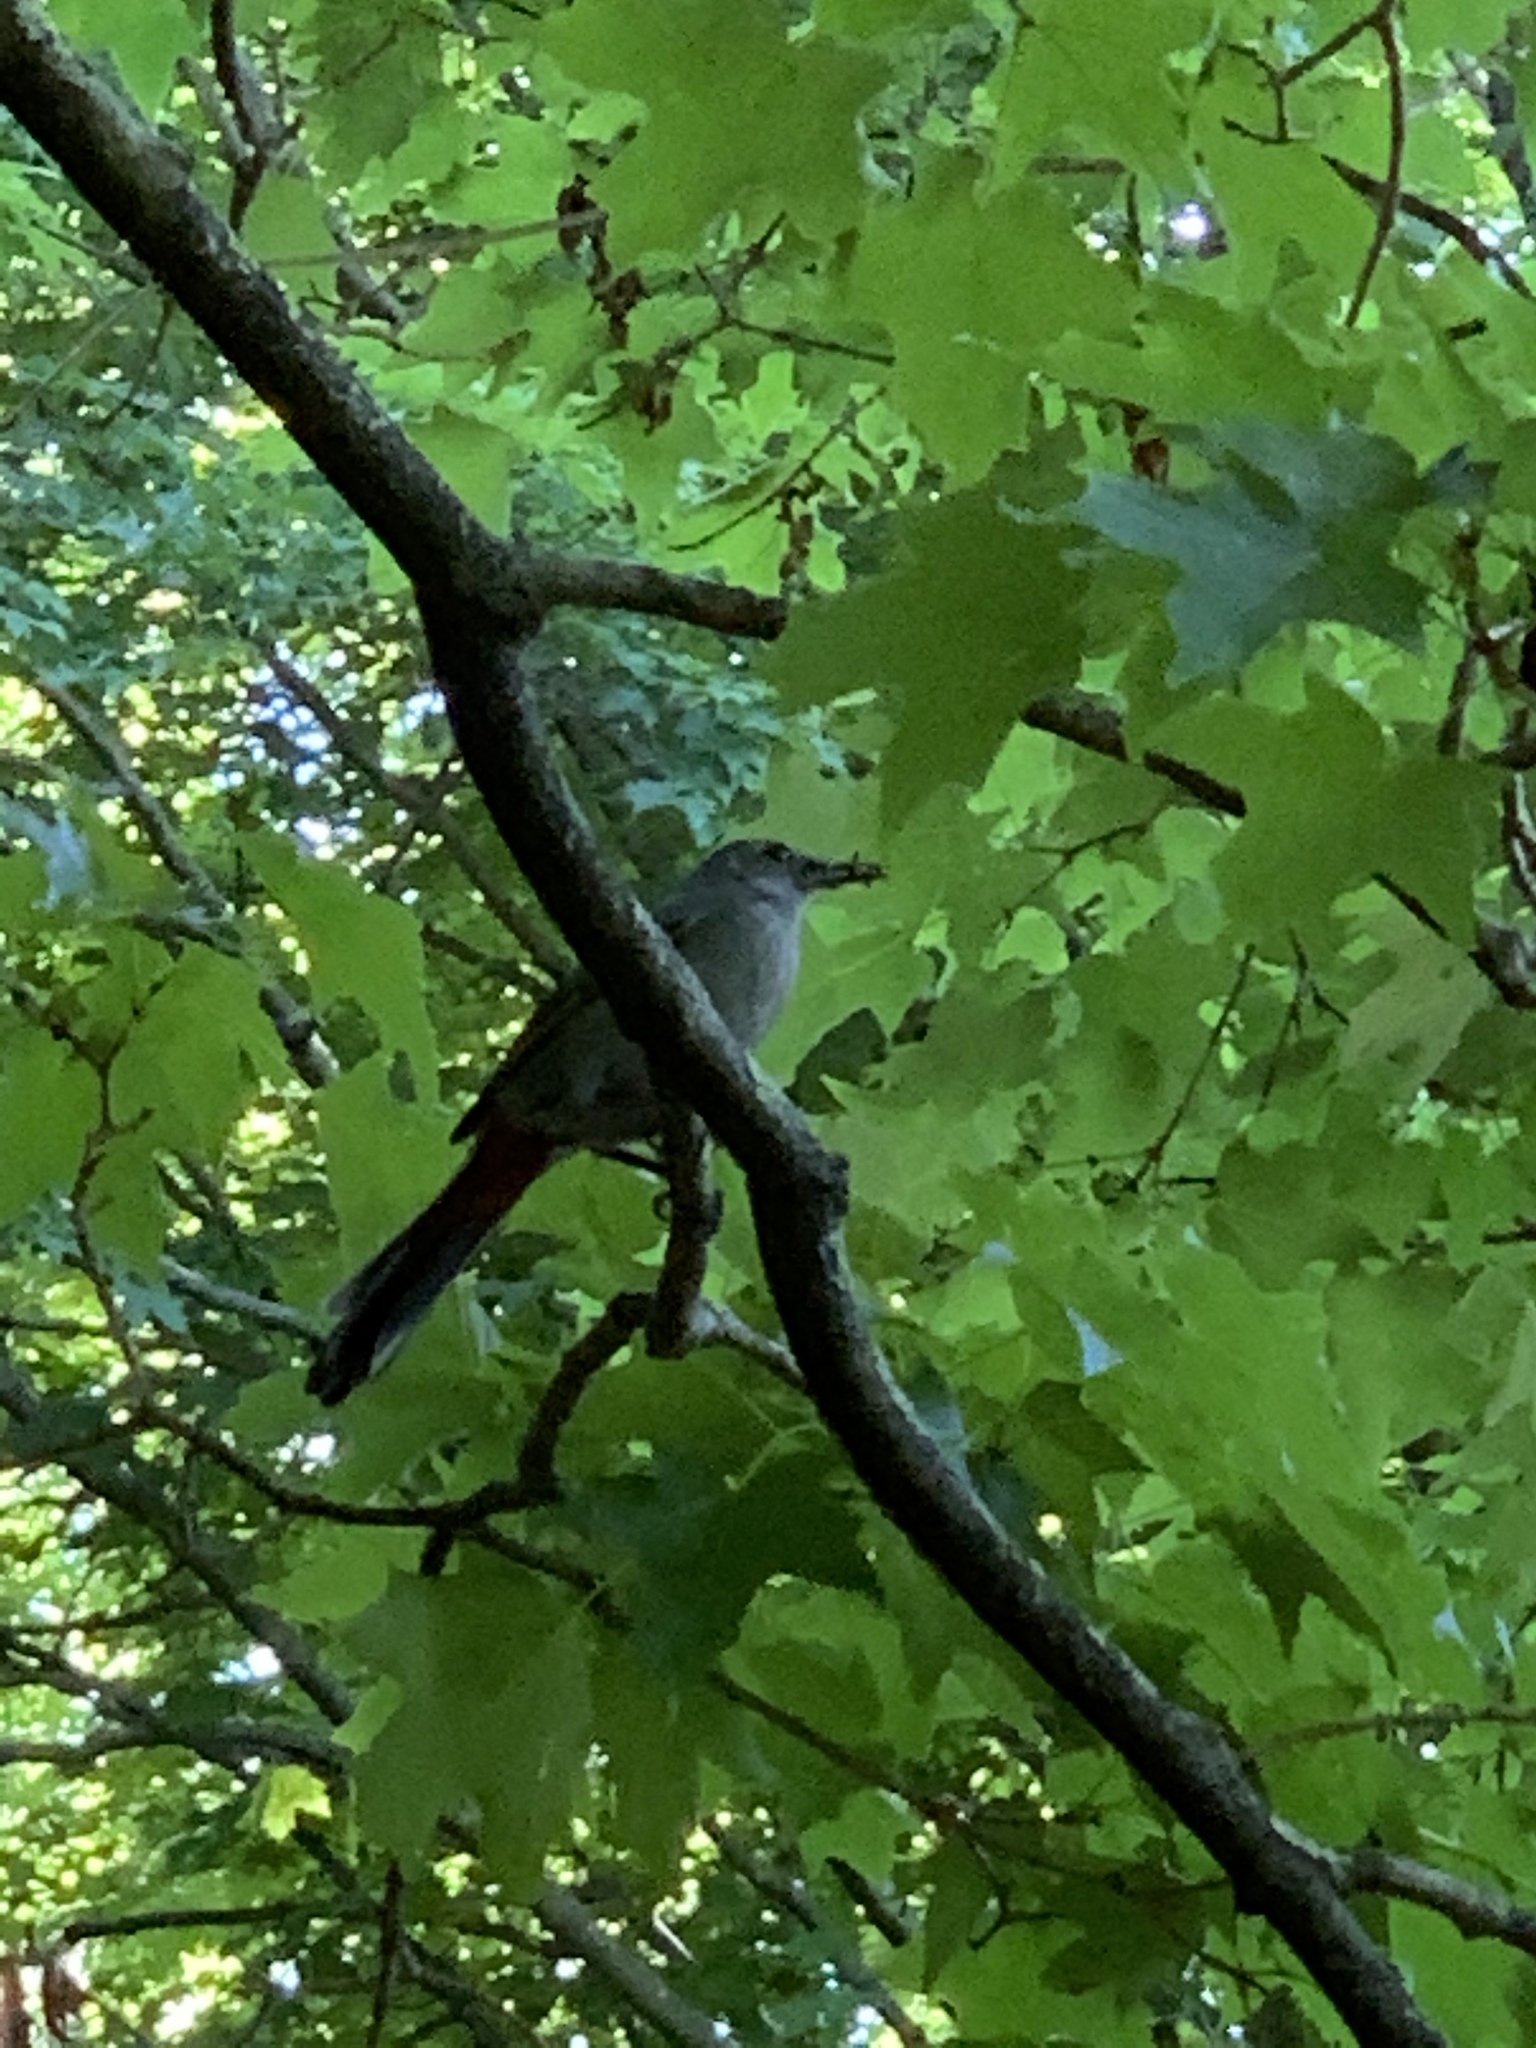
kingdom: Animalia
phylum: Chordata
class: Aves
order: Passeriformes
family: Mimidae
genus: Dumetella
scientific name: Dumetella carolinensis
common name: Gray catbird
